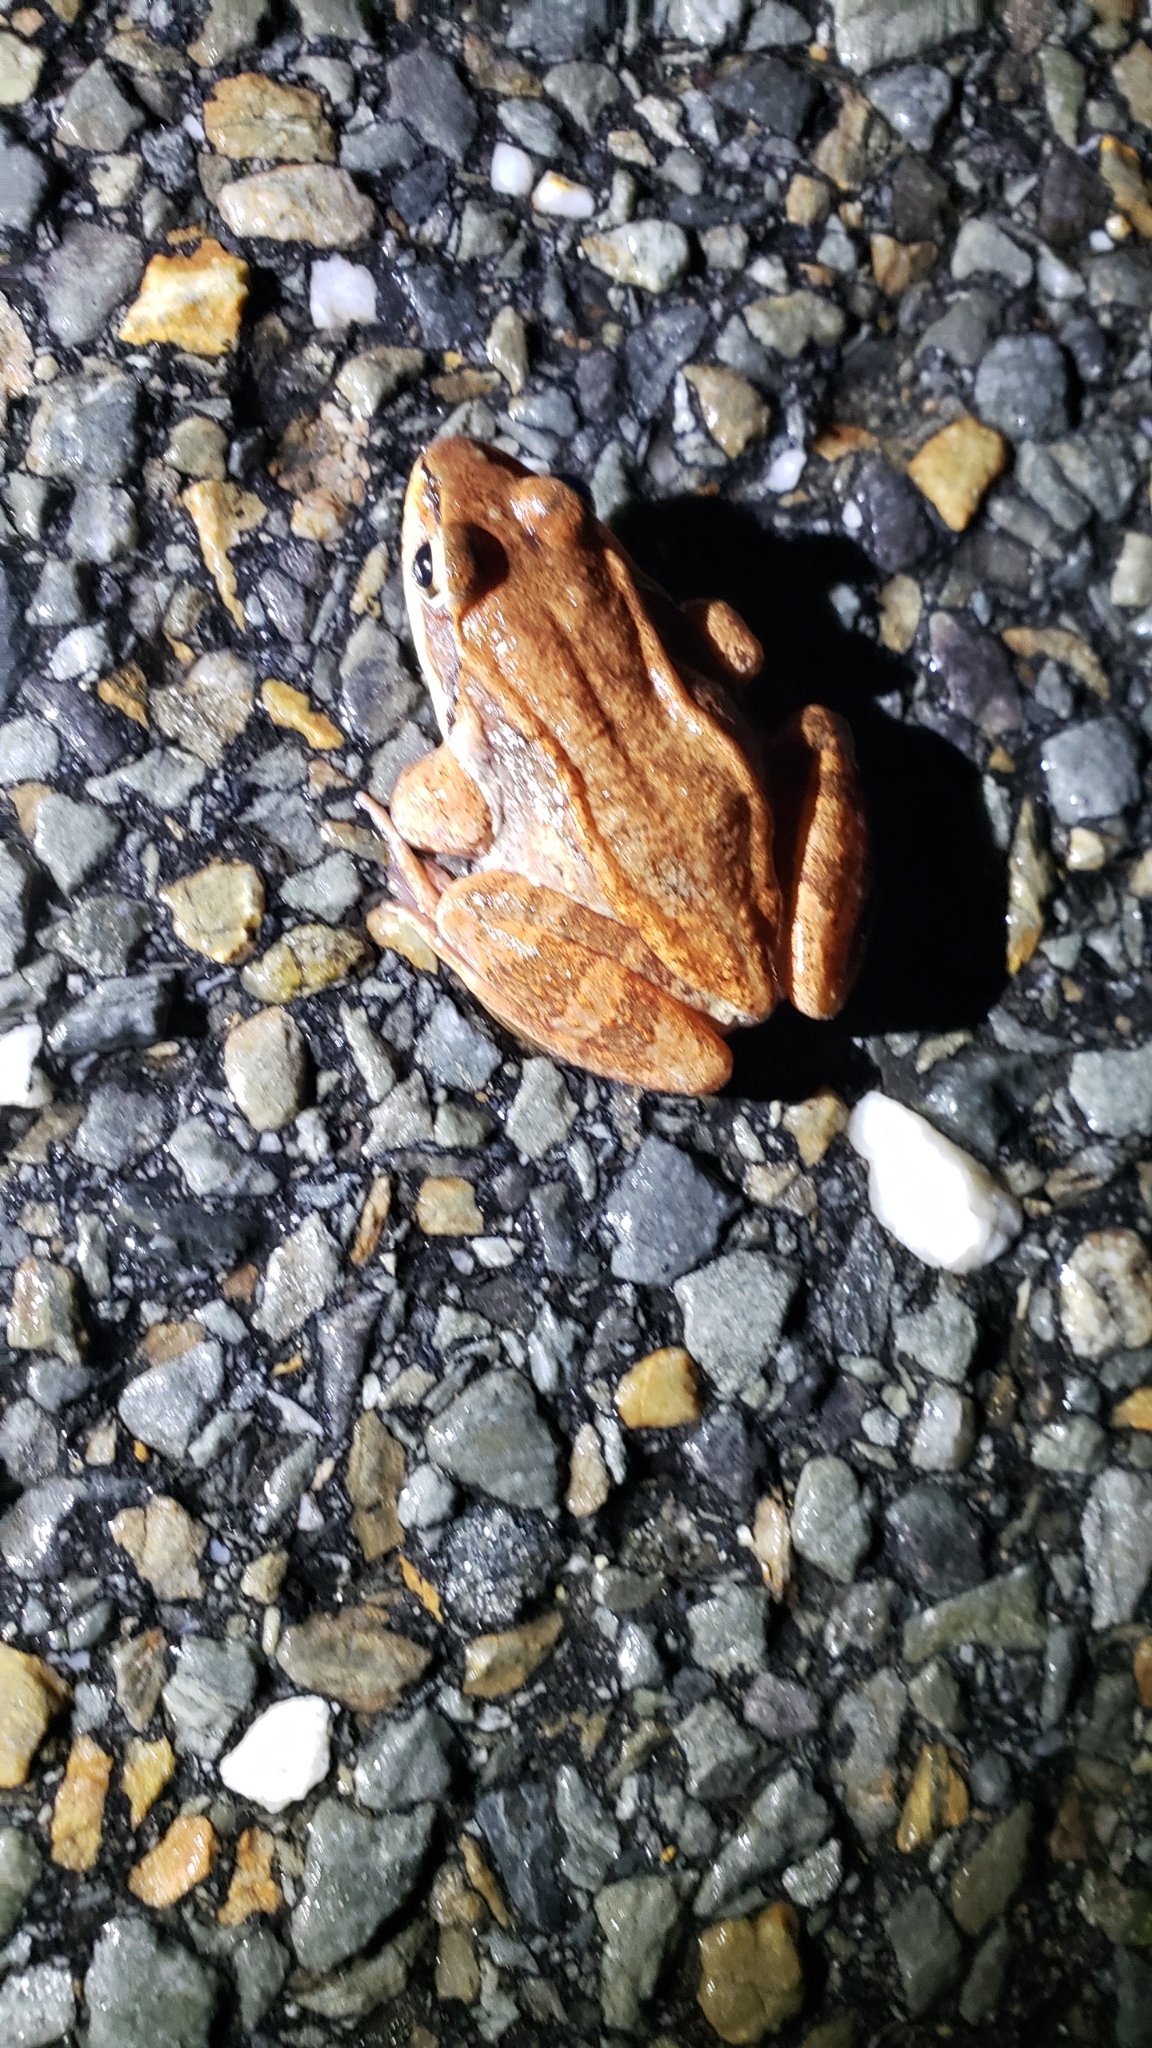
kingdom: Animalia
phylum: Chordata
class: Amphibia
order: Anura
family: Ranidae
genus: Lithobates
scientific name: Lithobates sylvaticus
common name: Wood frog
